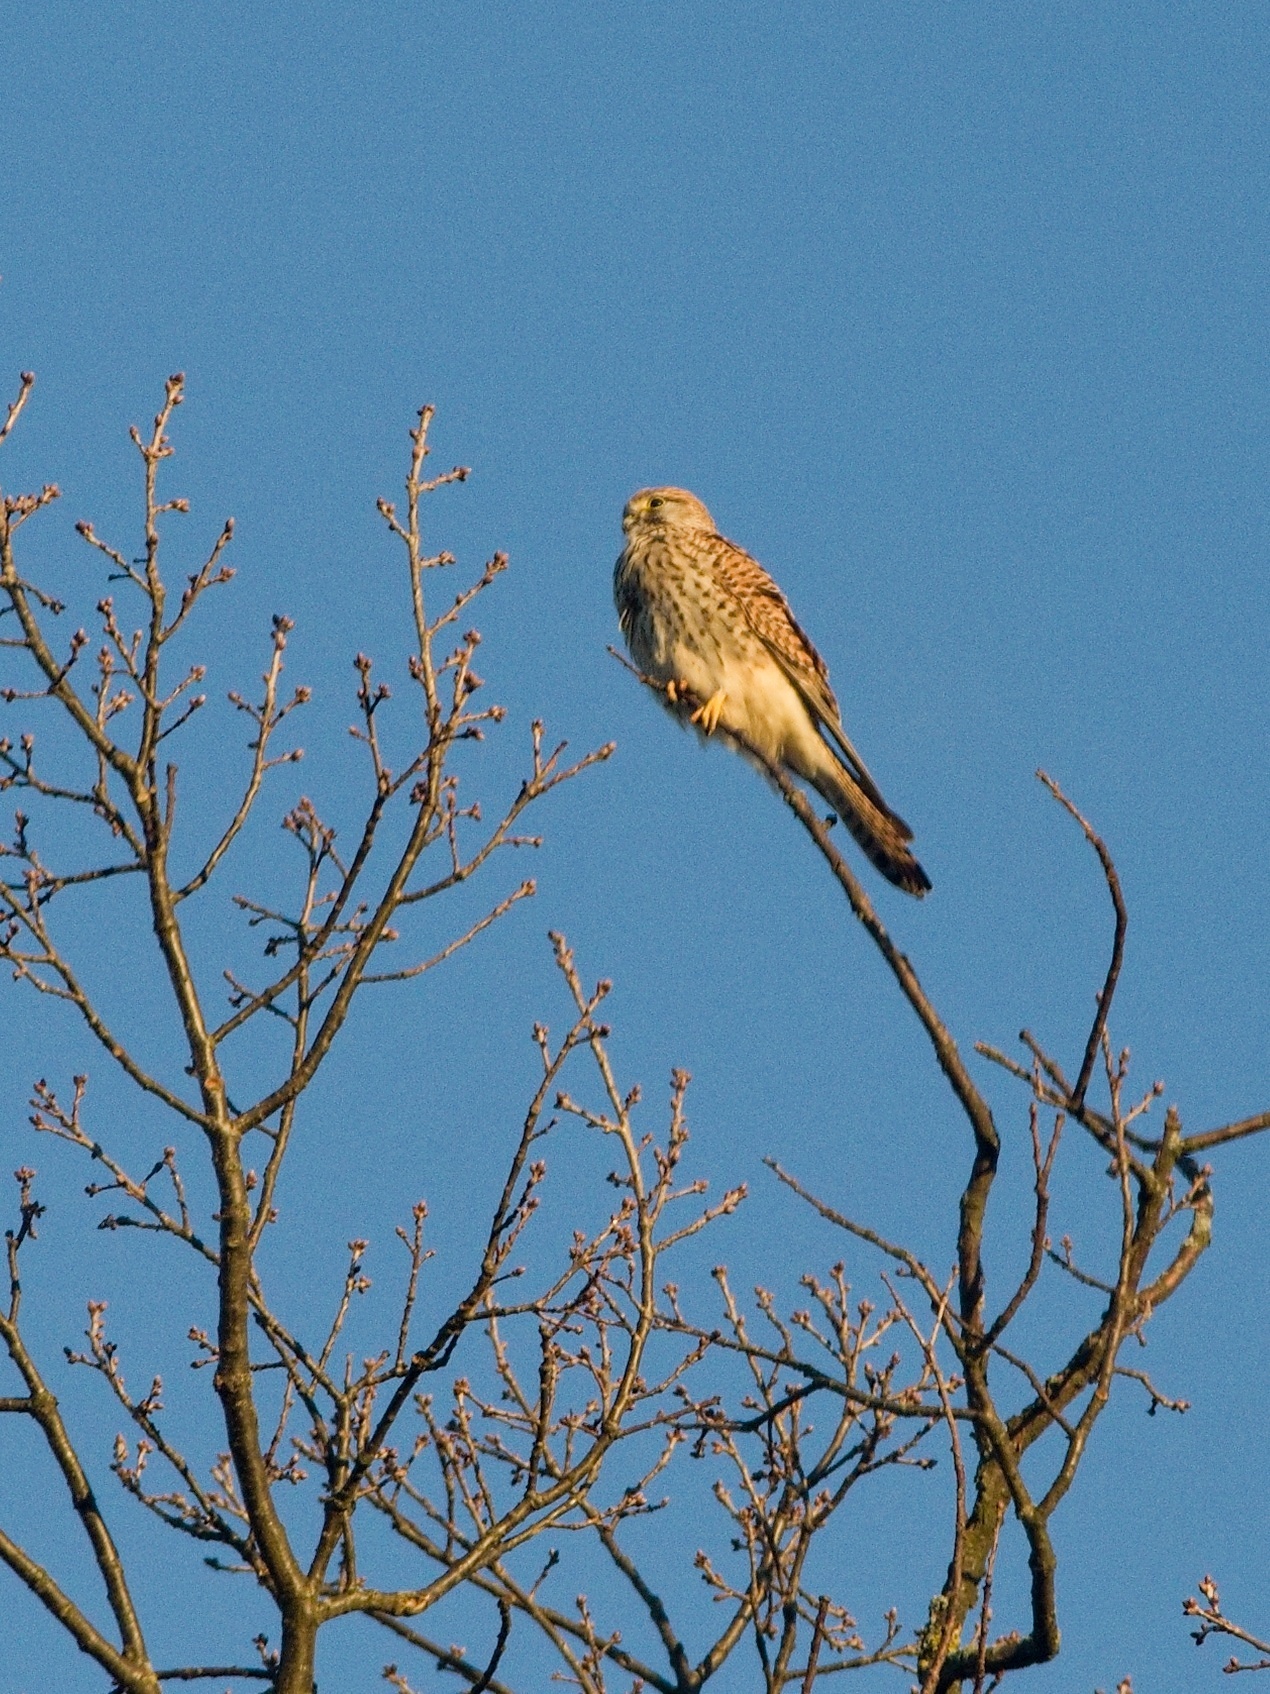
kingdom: Animalia
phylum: Chordata
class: Aves
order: Falconiformes
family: Falconidae
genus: Falco
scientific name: Falco tinnunculus
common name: Common kestrel
